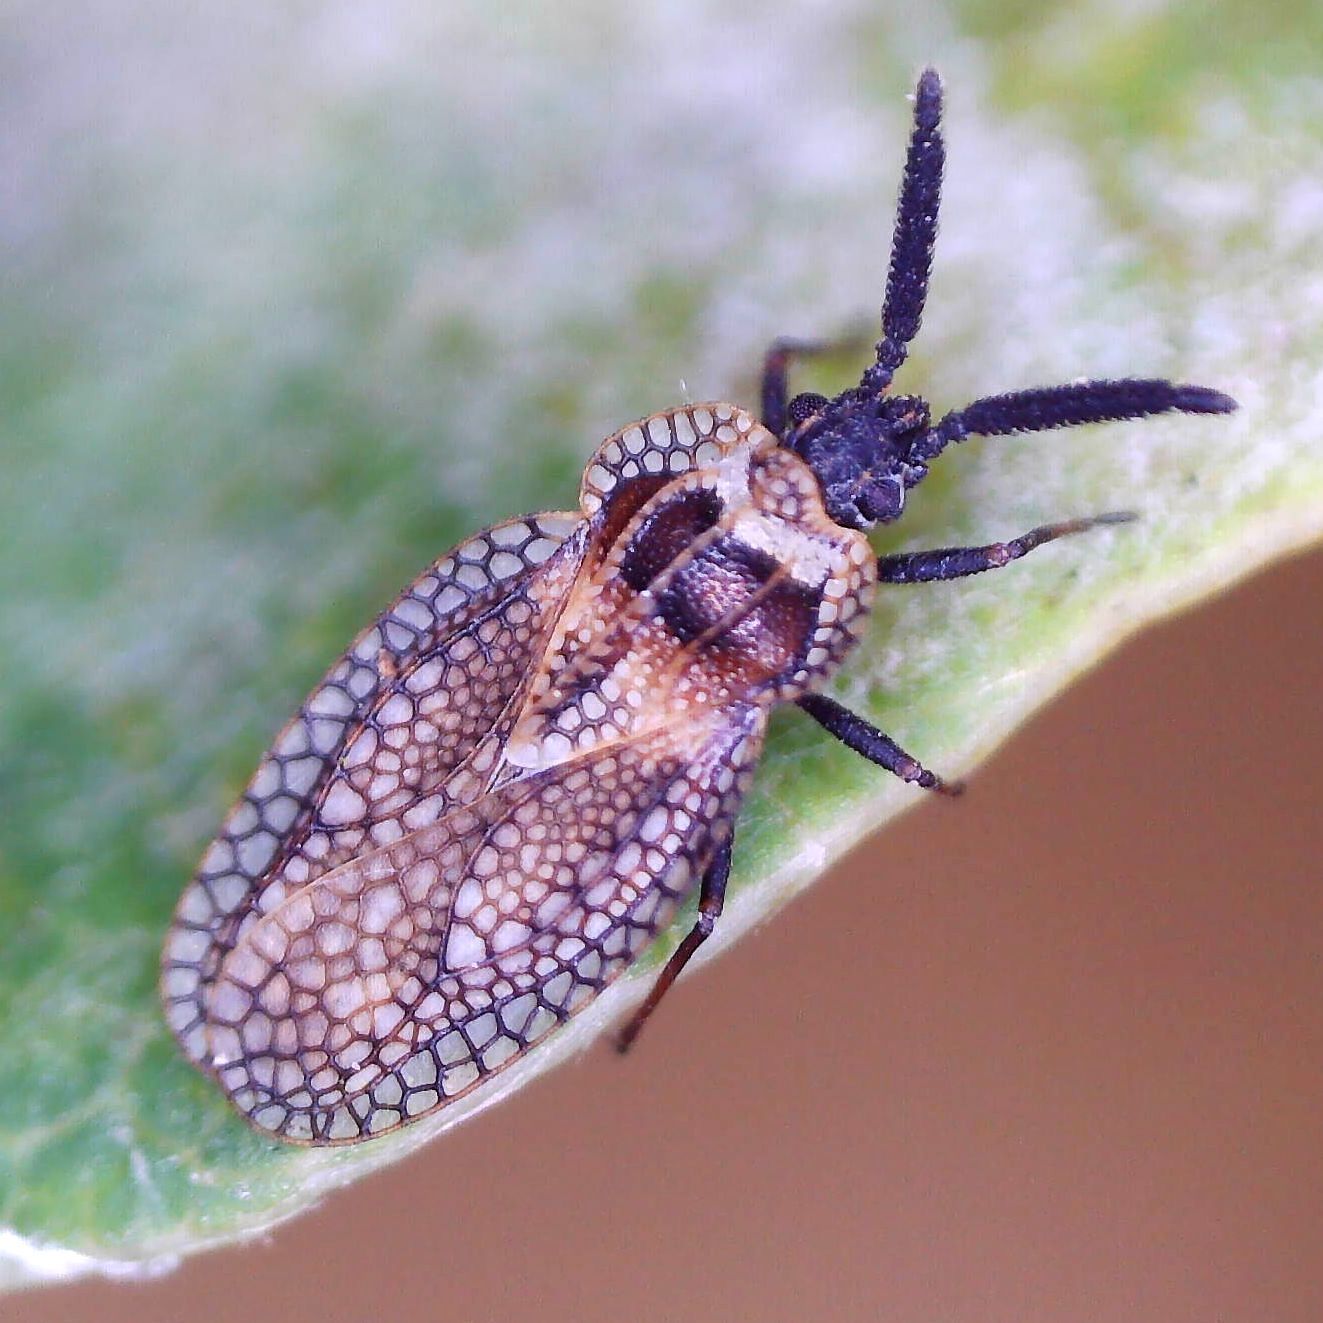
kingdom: Animalia
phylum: Arthropoda
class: Insecta
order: Hemiptera
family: Tingidae
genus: Dictyonota
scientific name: Dictyonota strichnocera
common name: Gorse lacebug
